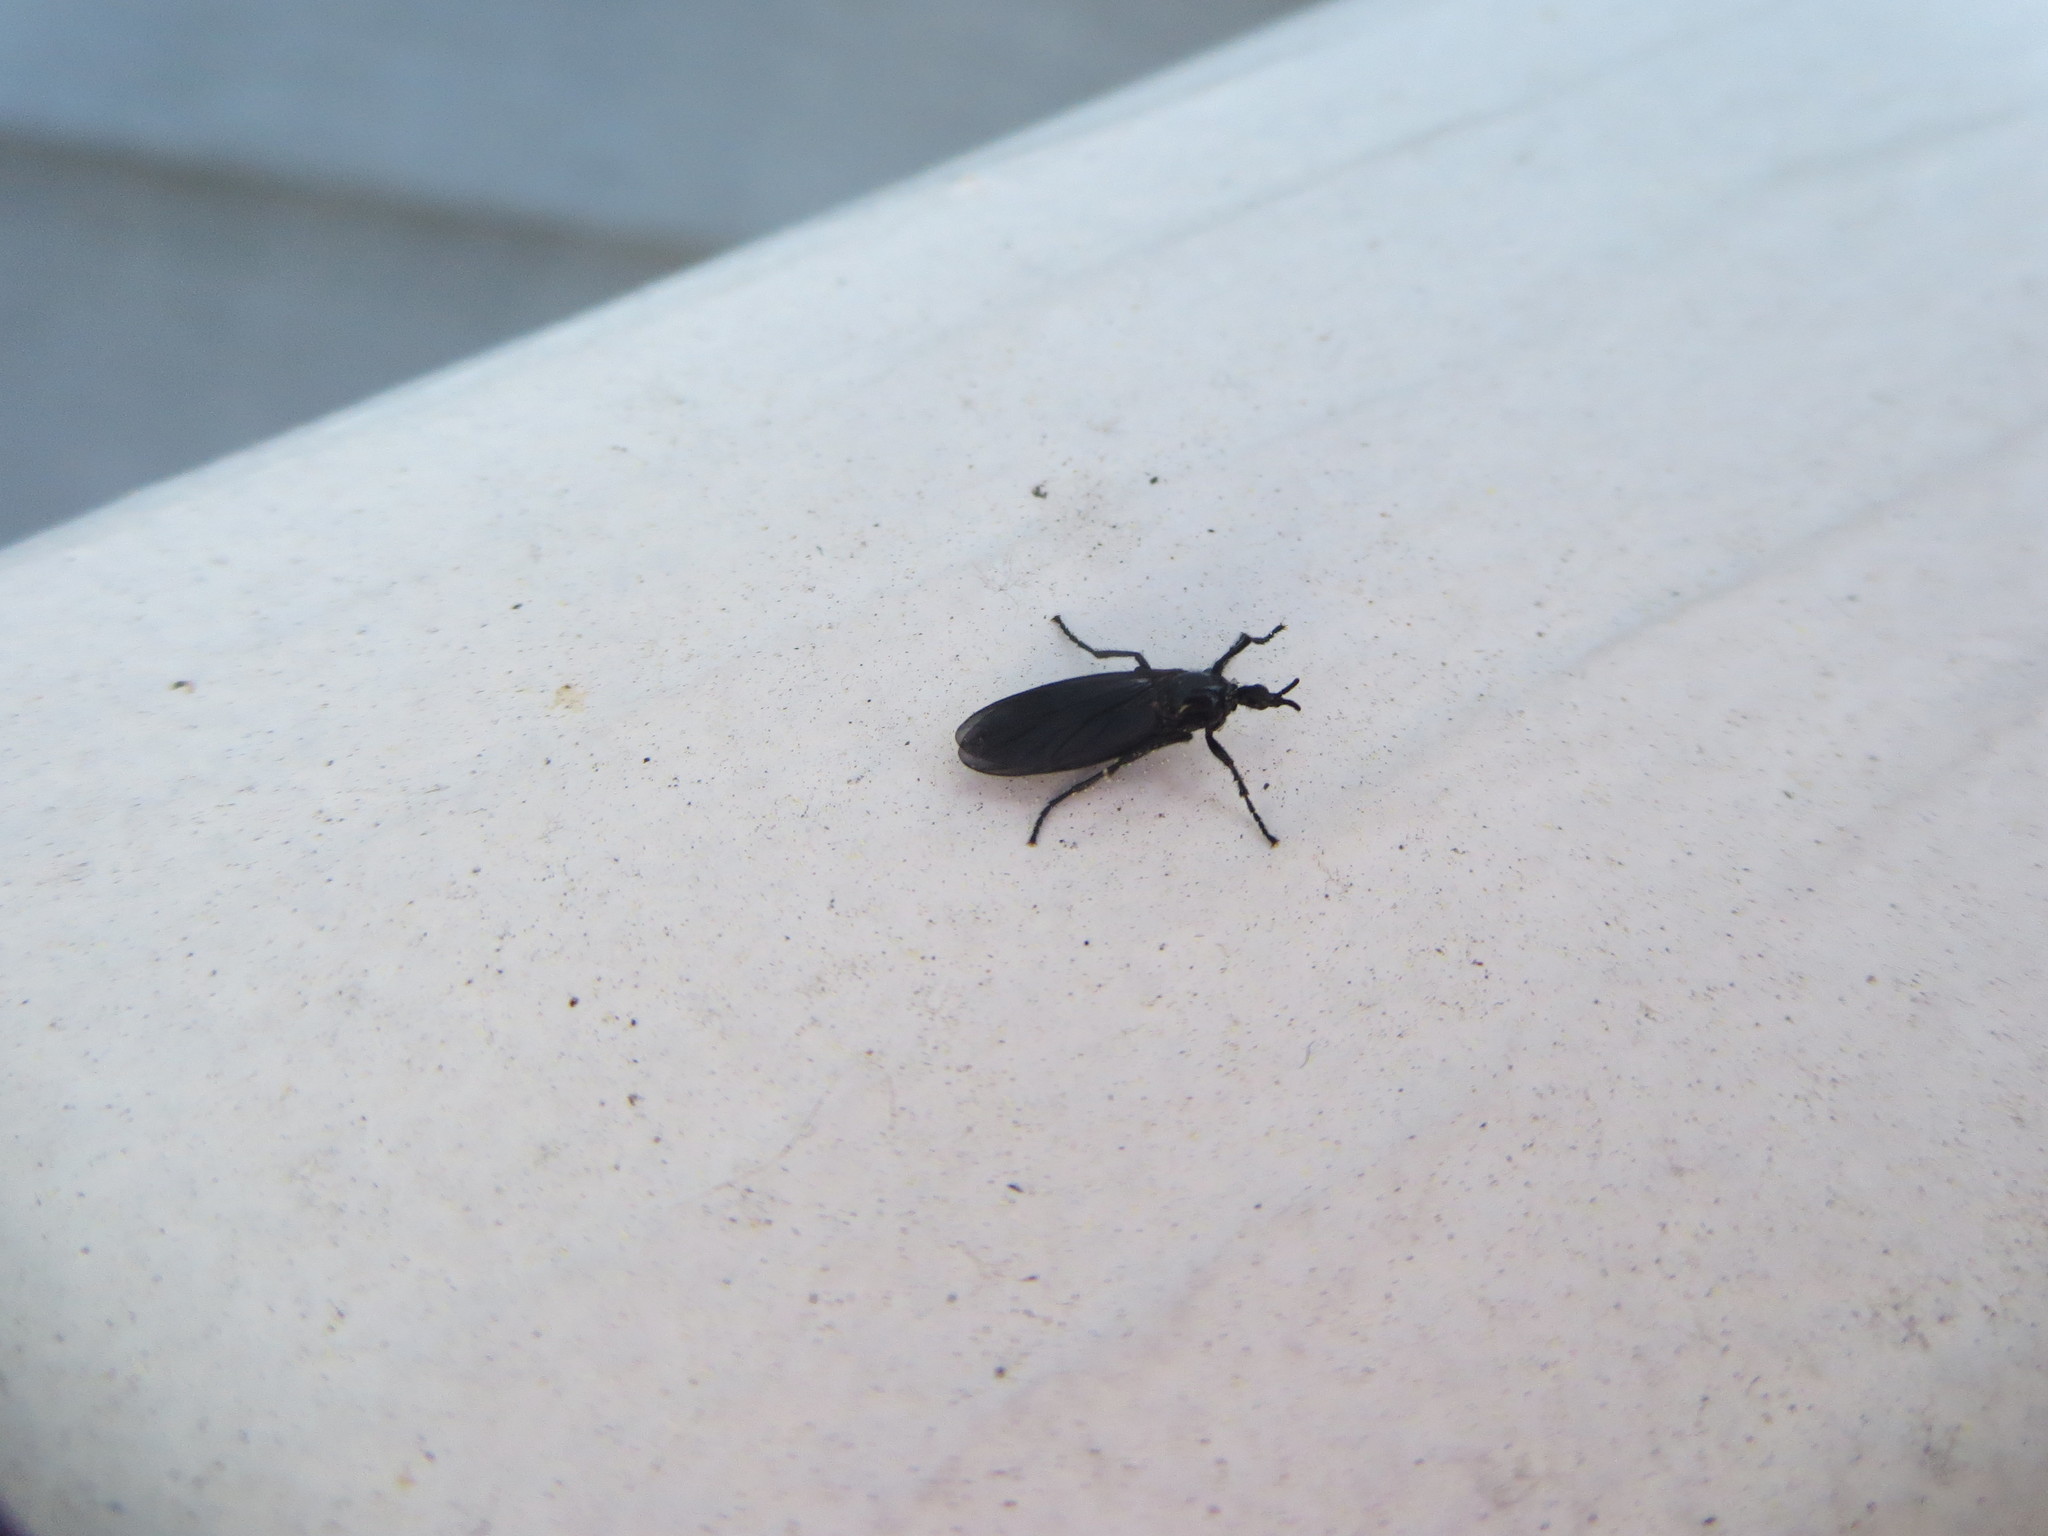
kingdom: Animalia
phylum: Arthropoda
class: Insecta
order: Diptera
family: Bibionidae
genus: Dilophus
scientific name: Dilophus orbatus
